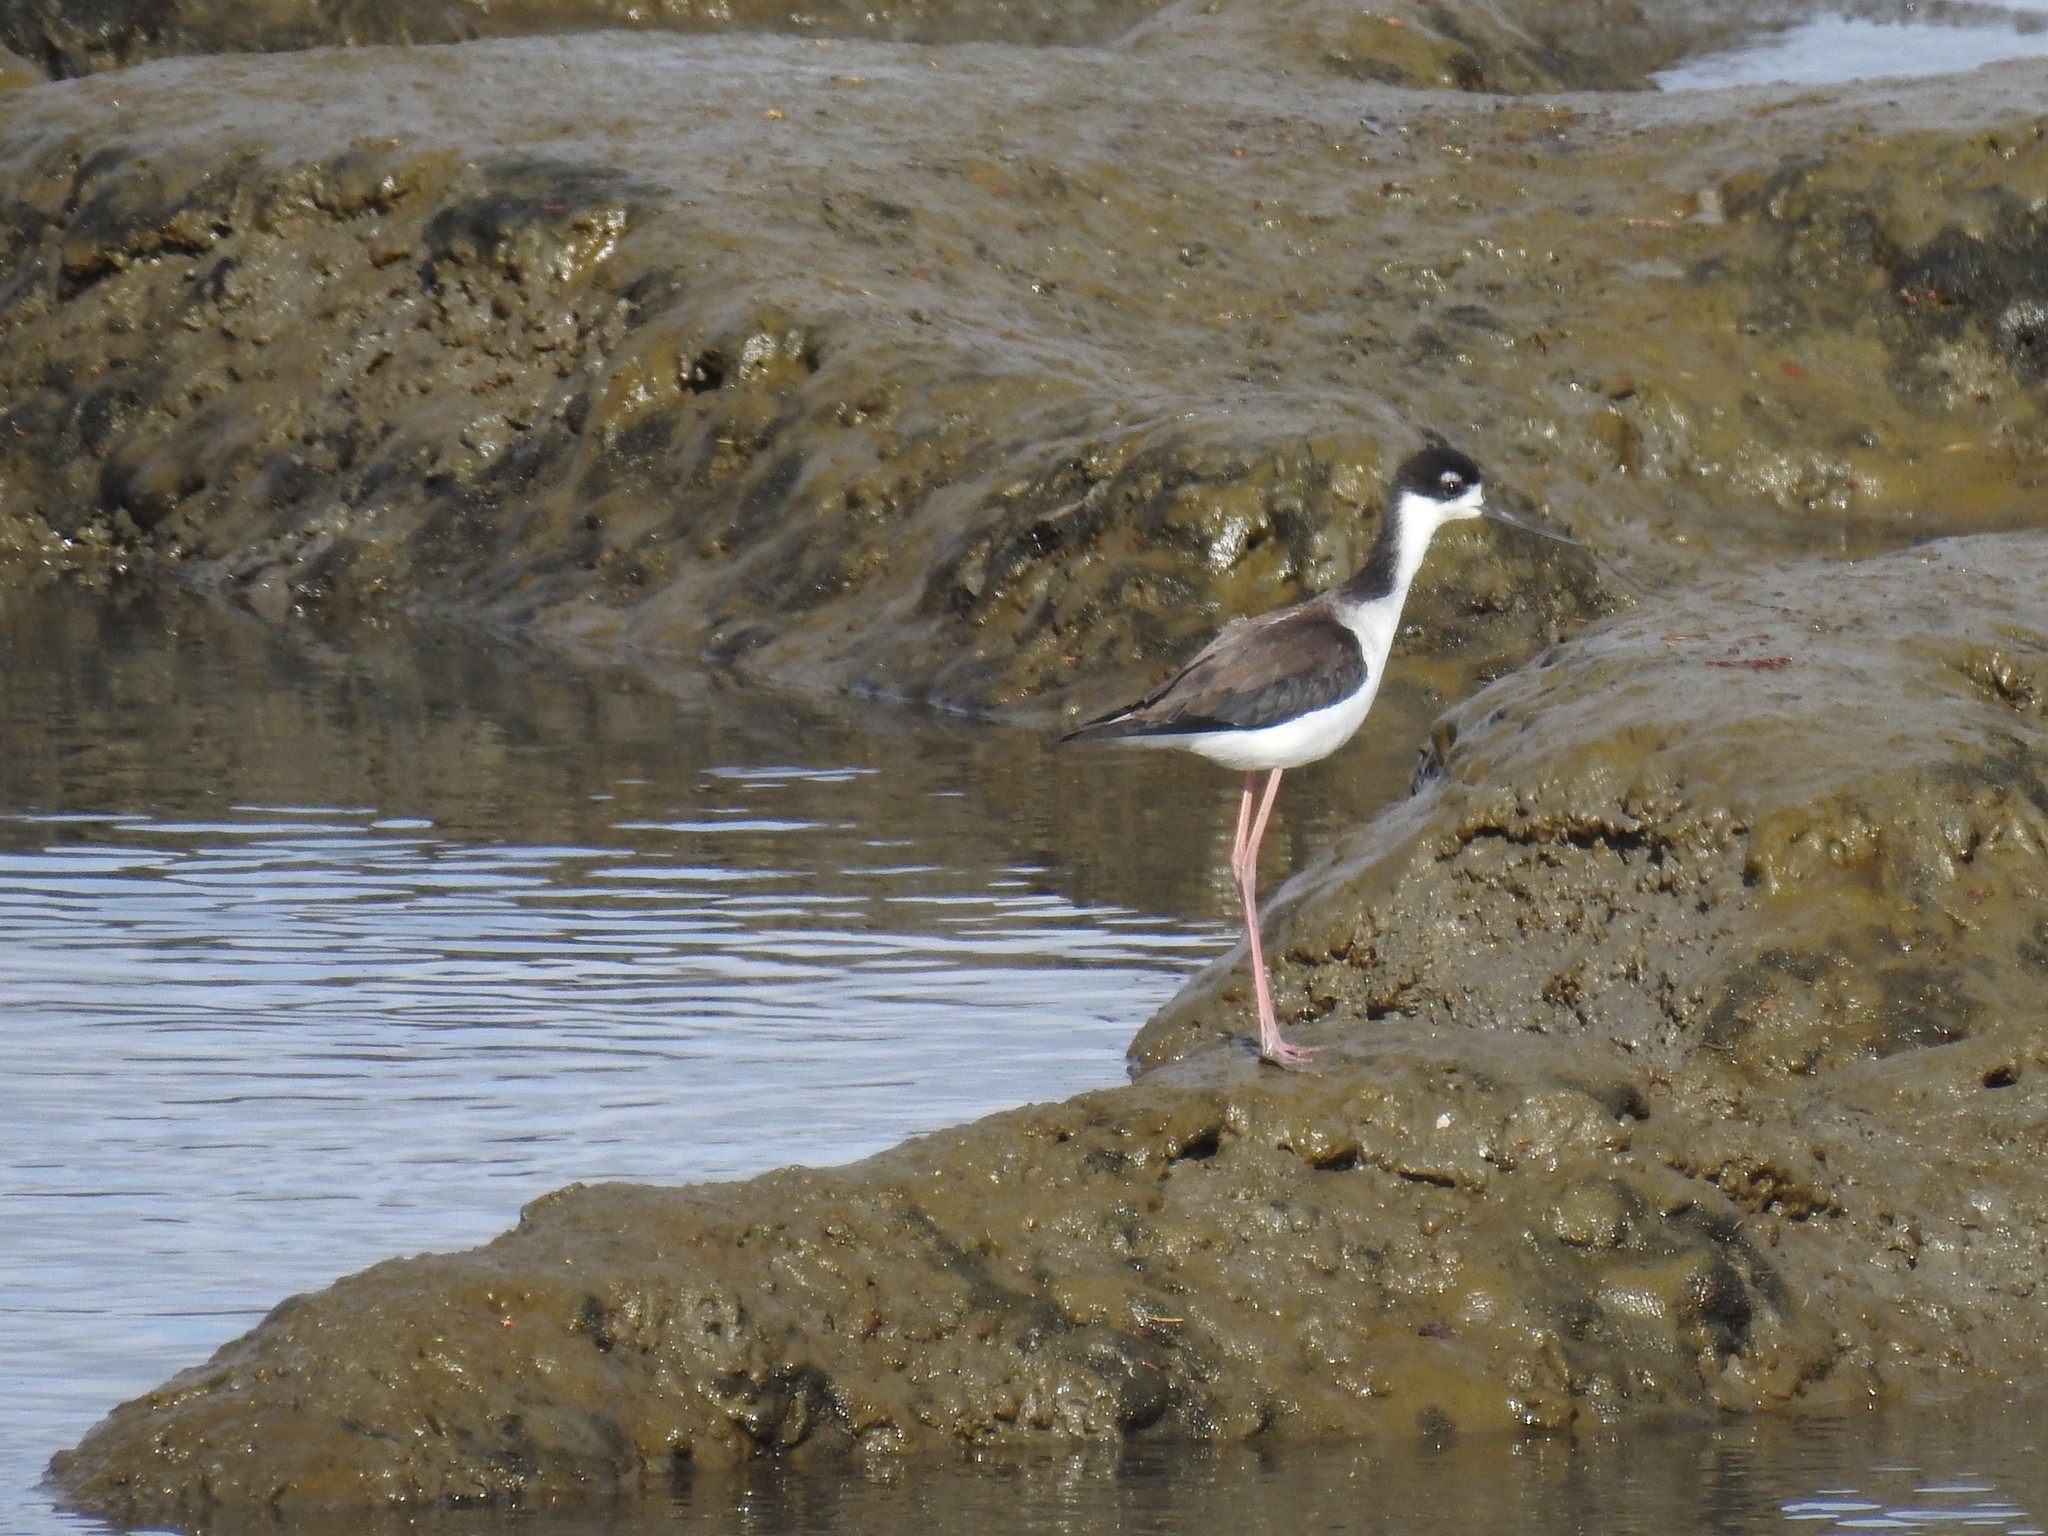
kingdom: Animalia
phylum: Chordata
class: Aves
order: Charadriiformes
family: Recurvirostridae
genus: Himantopus
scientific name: Himantopus mexicanus
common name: Black-necked stilt
